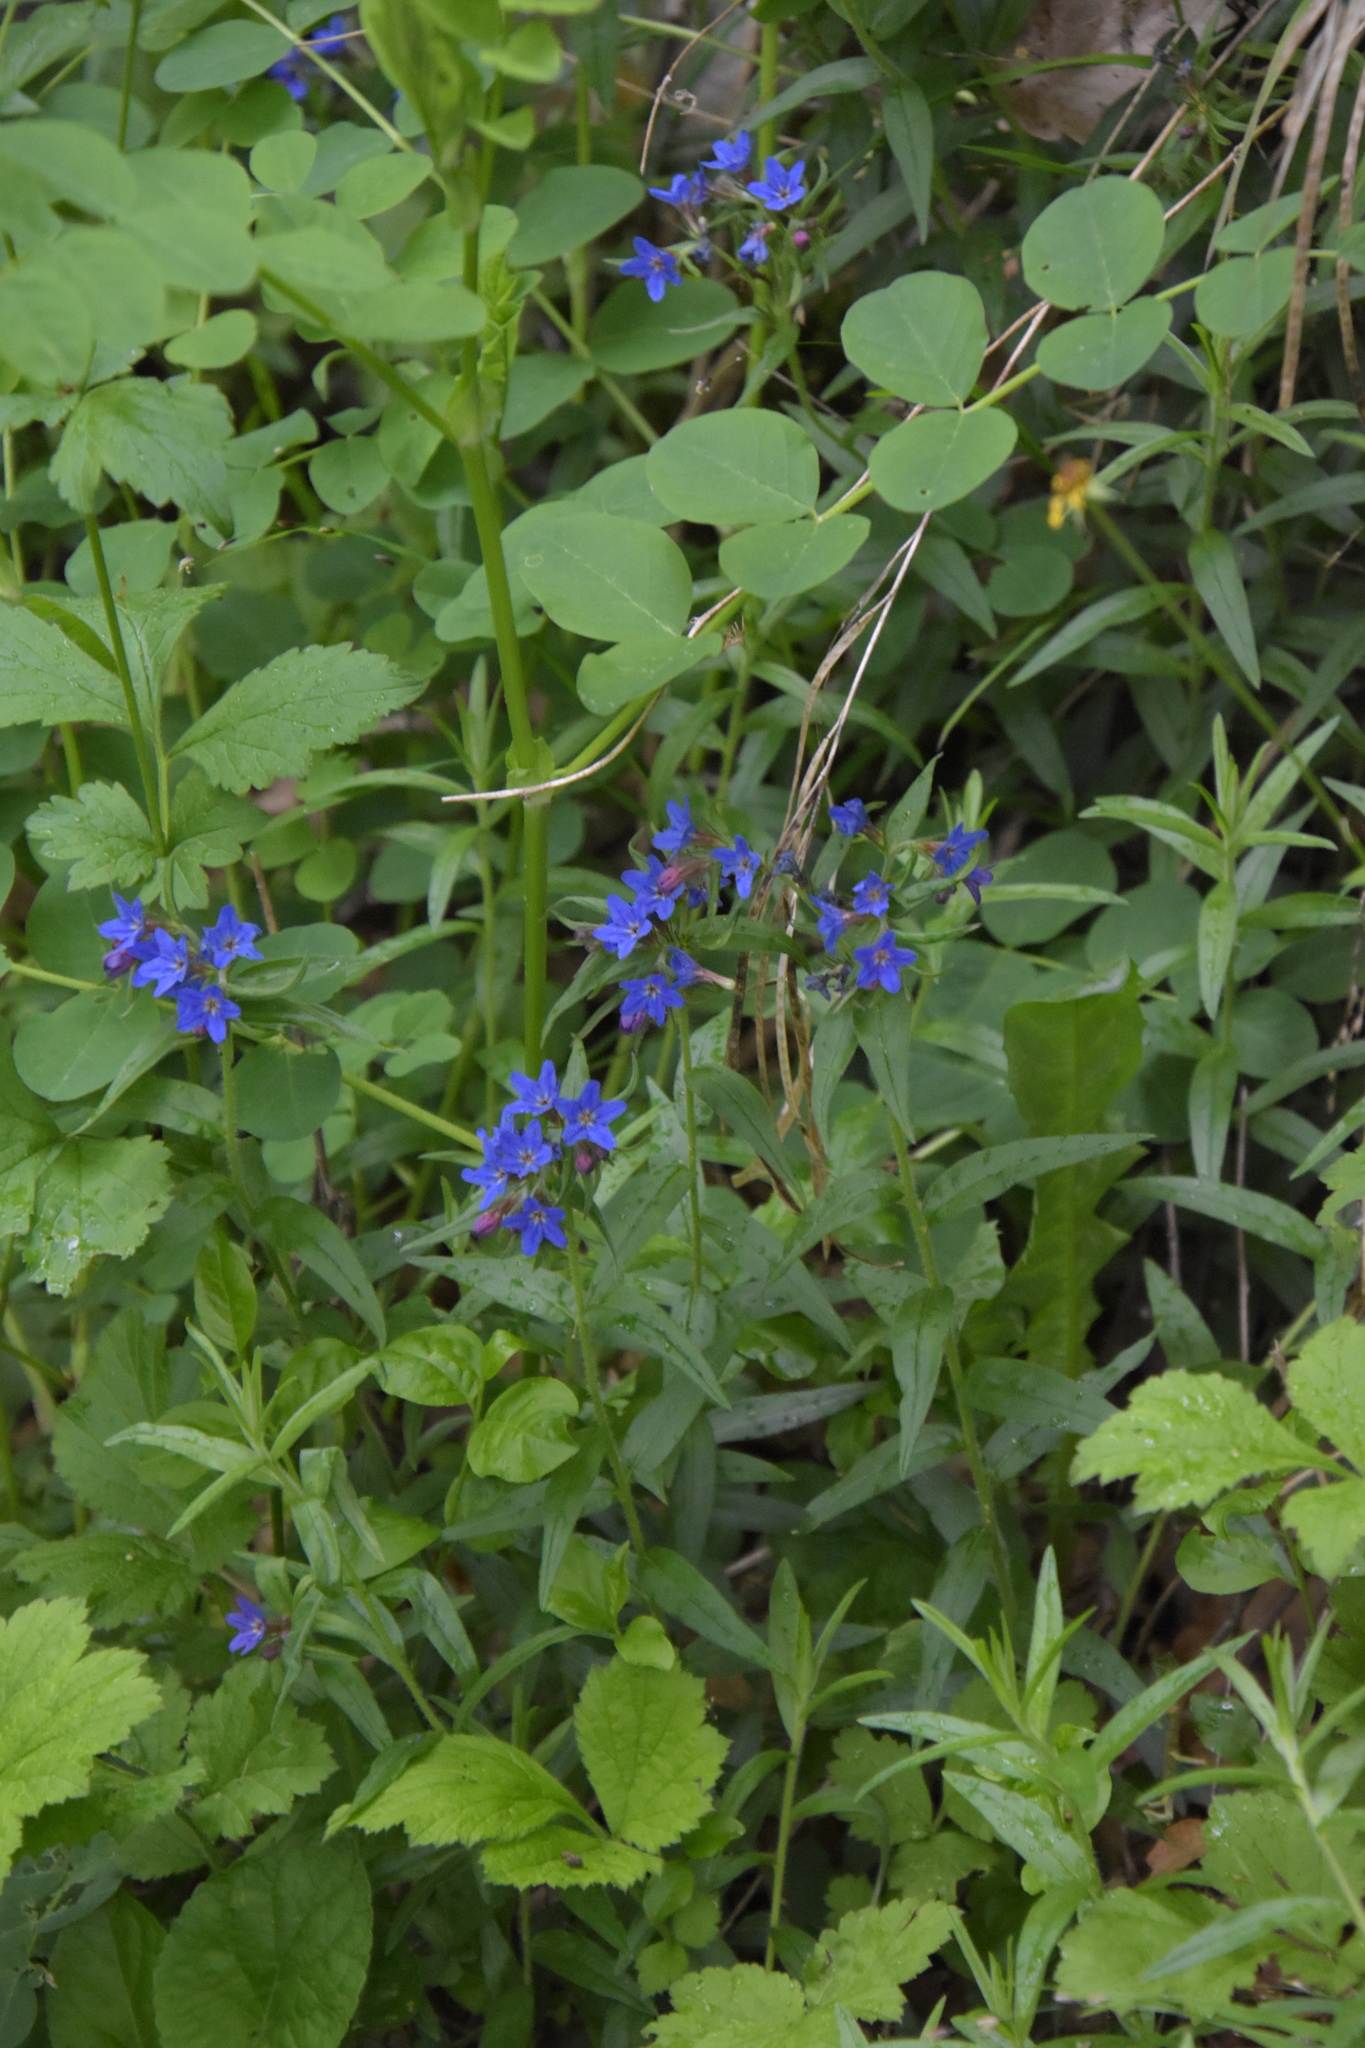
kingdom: Plantae
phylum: Tracheophyta
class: Magnoliopsida
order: Boraginales
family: Boraginaceae
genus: Aegonychon
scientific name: Aegonychon purpurocaeruleum
